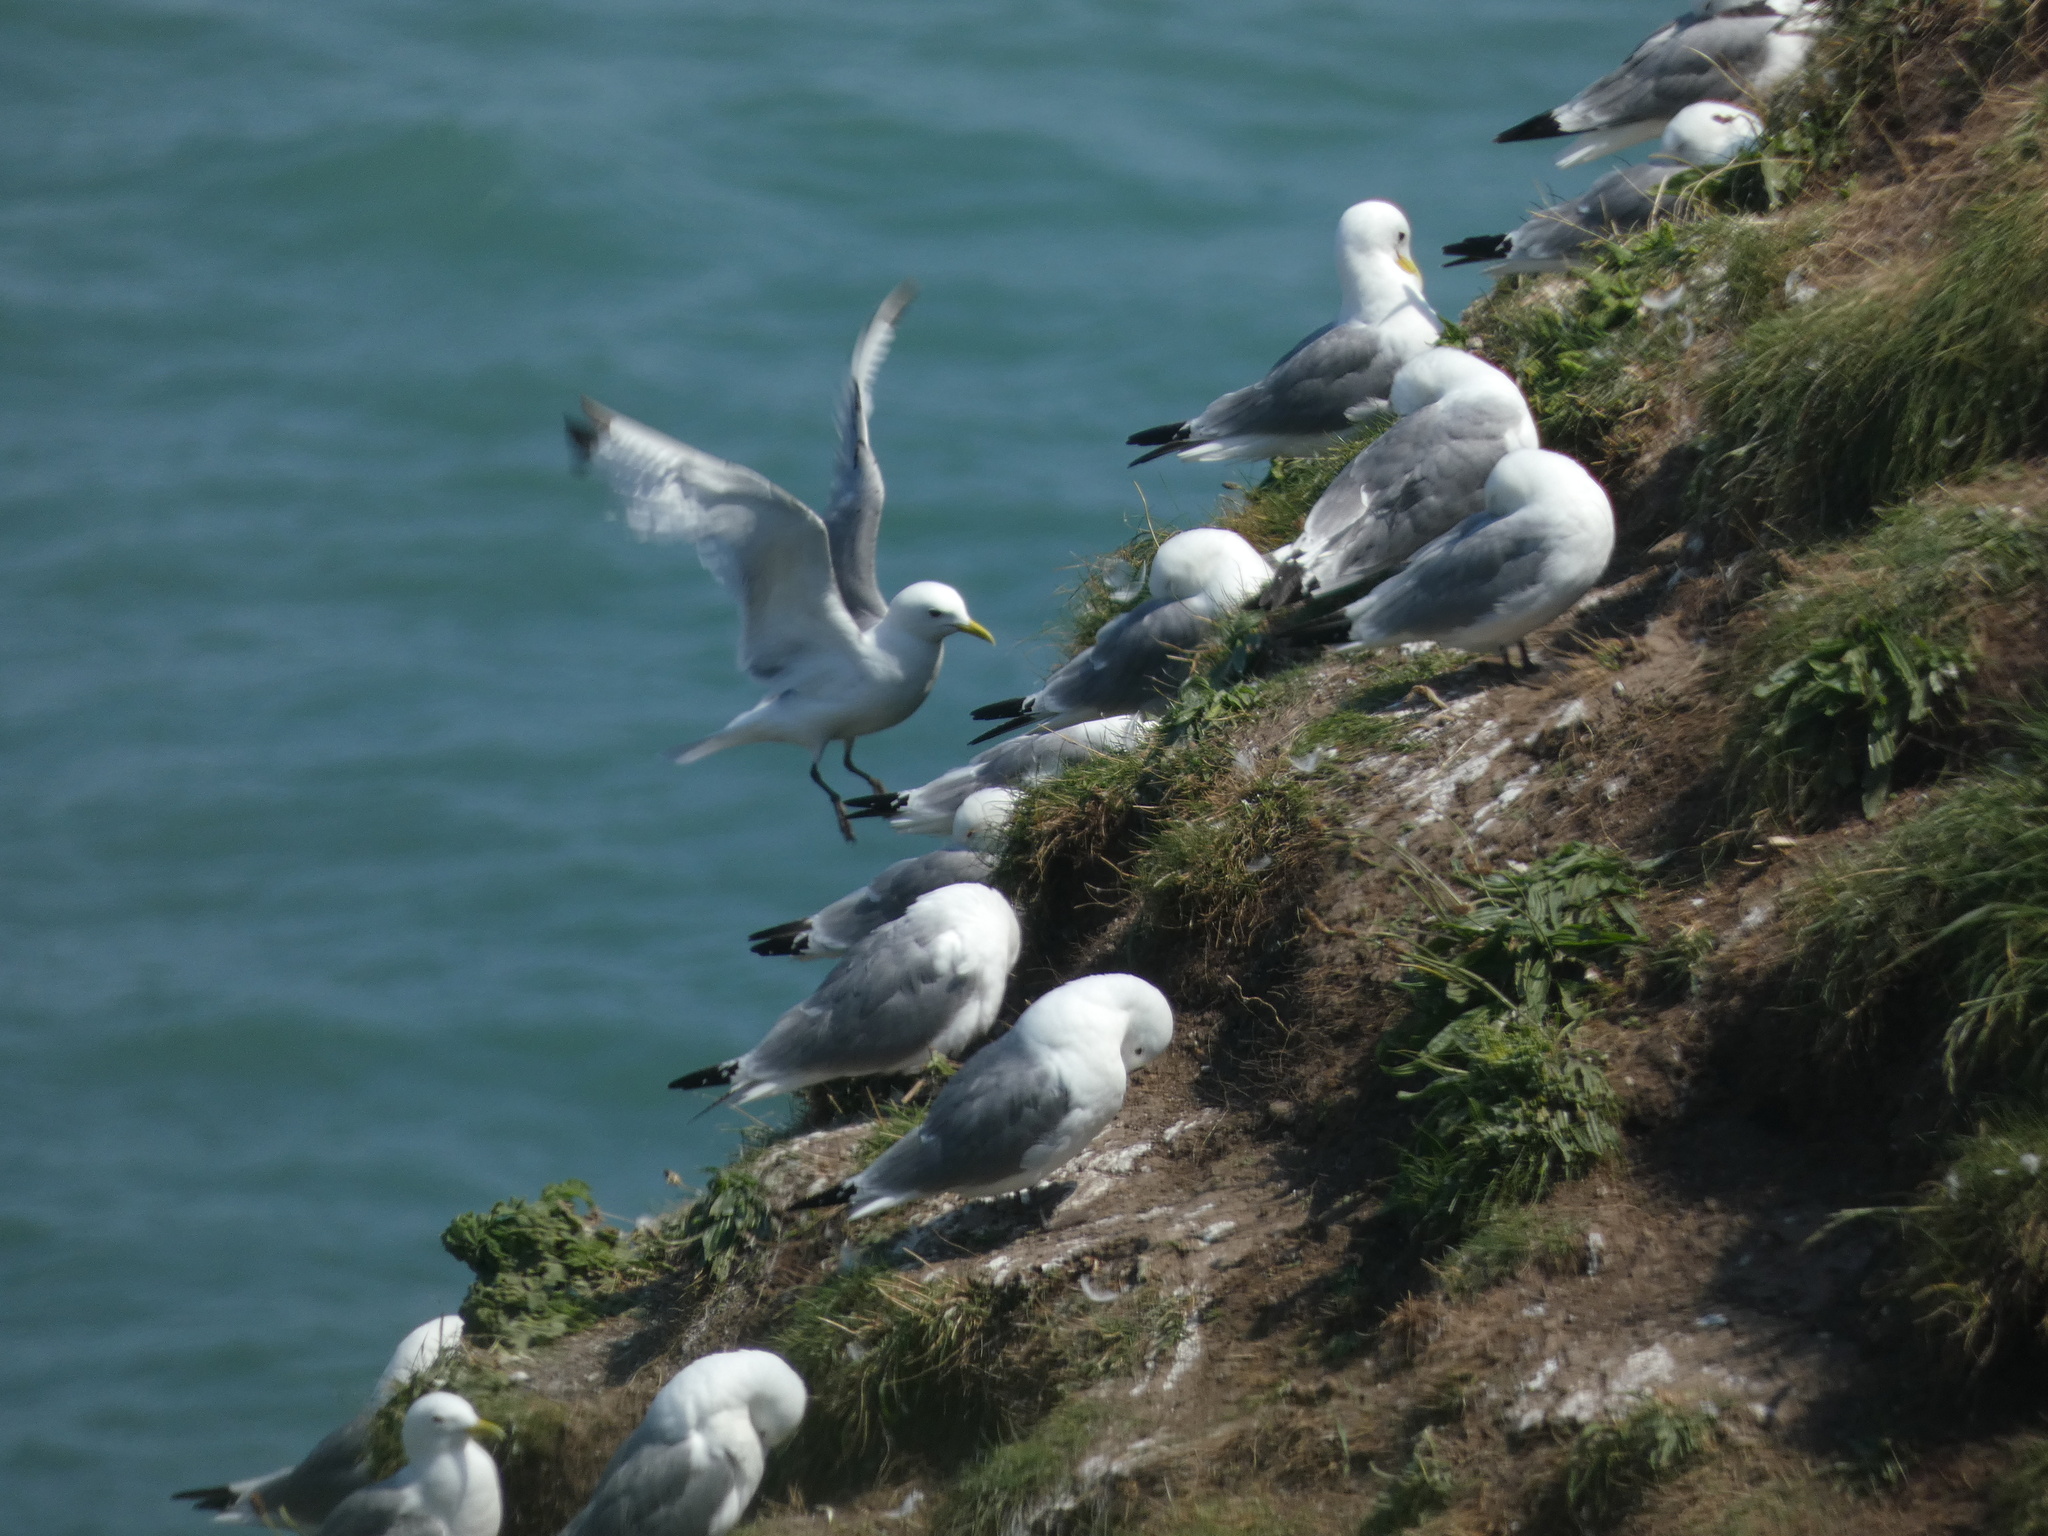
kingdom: Animalia
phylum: Chordata
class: Aves
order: Charadriiformes
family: Laridae
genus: Rissa
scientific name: Rissa tridactyla
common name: Black-legged kittiwake
